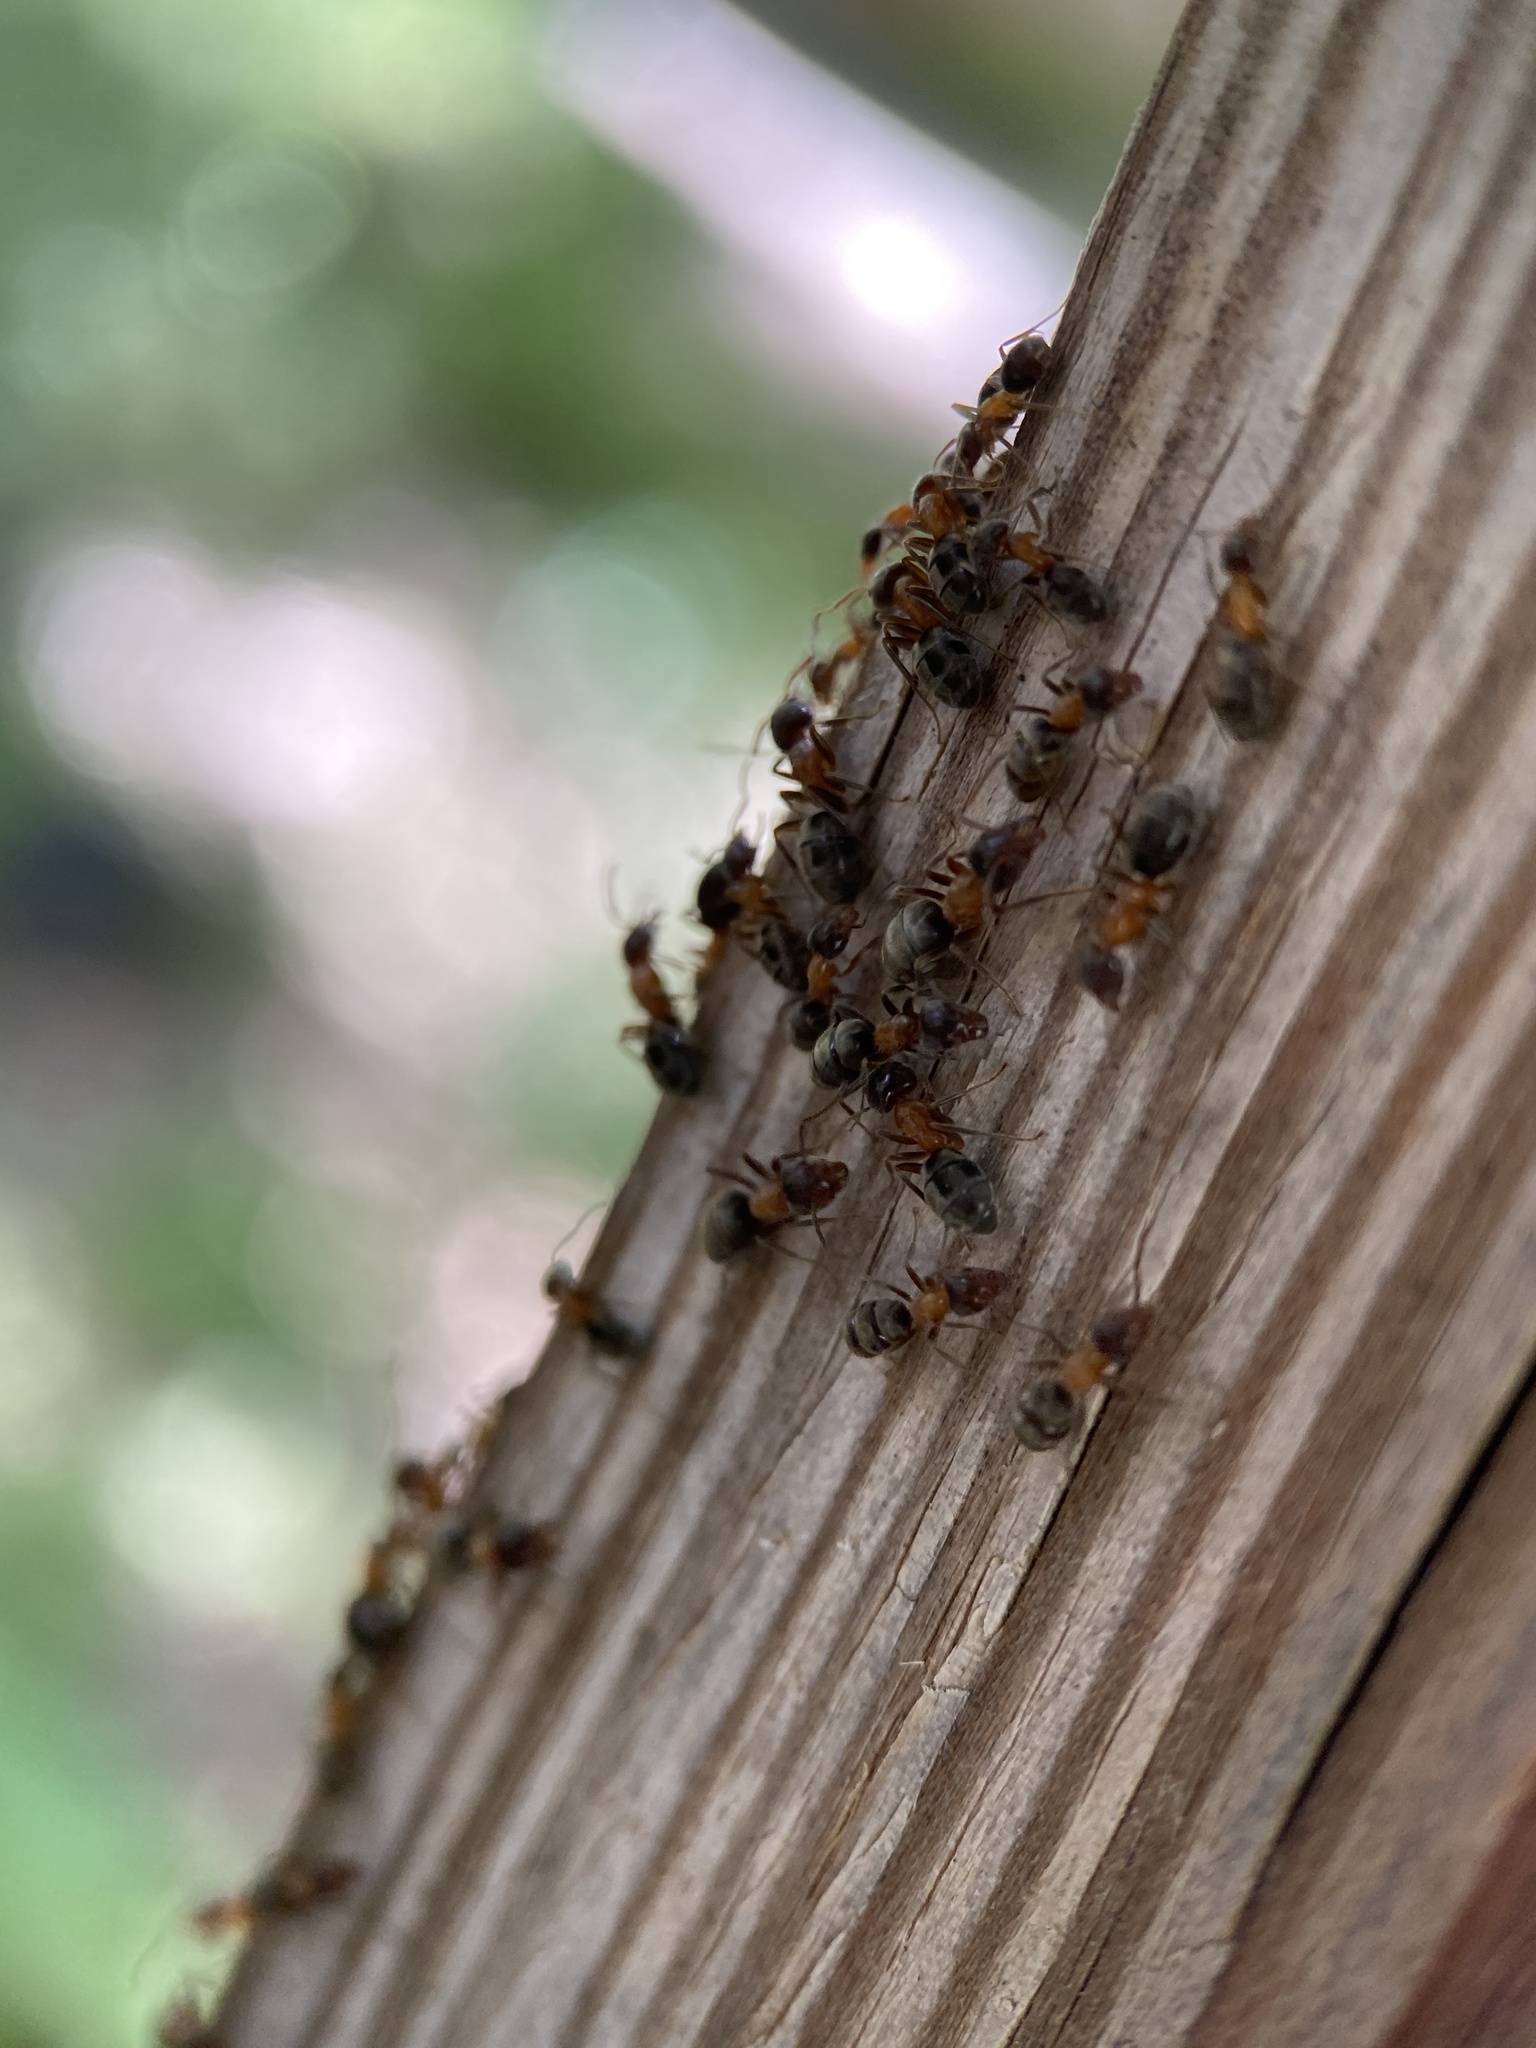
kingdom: Animalia
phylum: Arthropoda
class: Insecta
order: Hymenoptera
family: Formicidae
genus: Liometopum
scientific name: Liometopum occidentale
